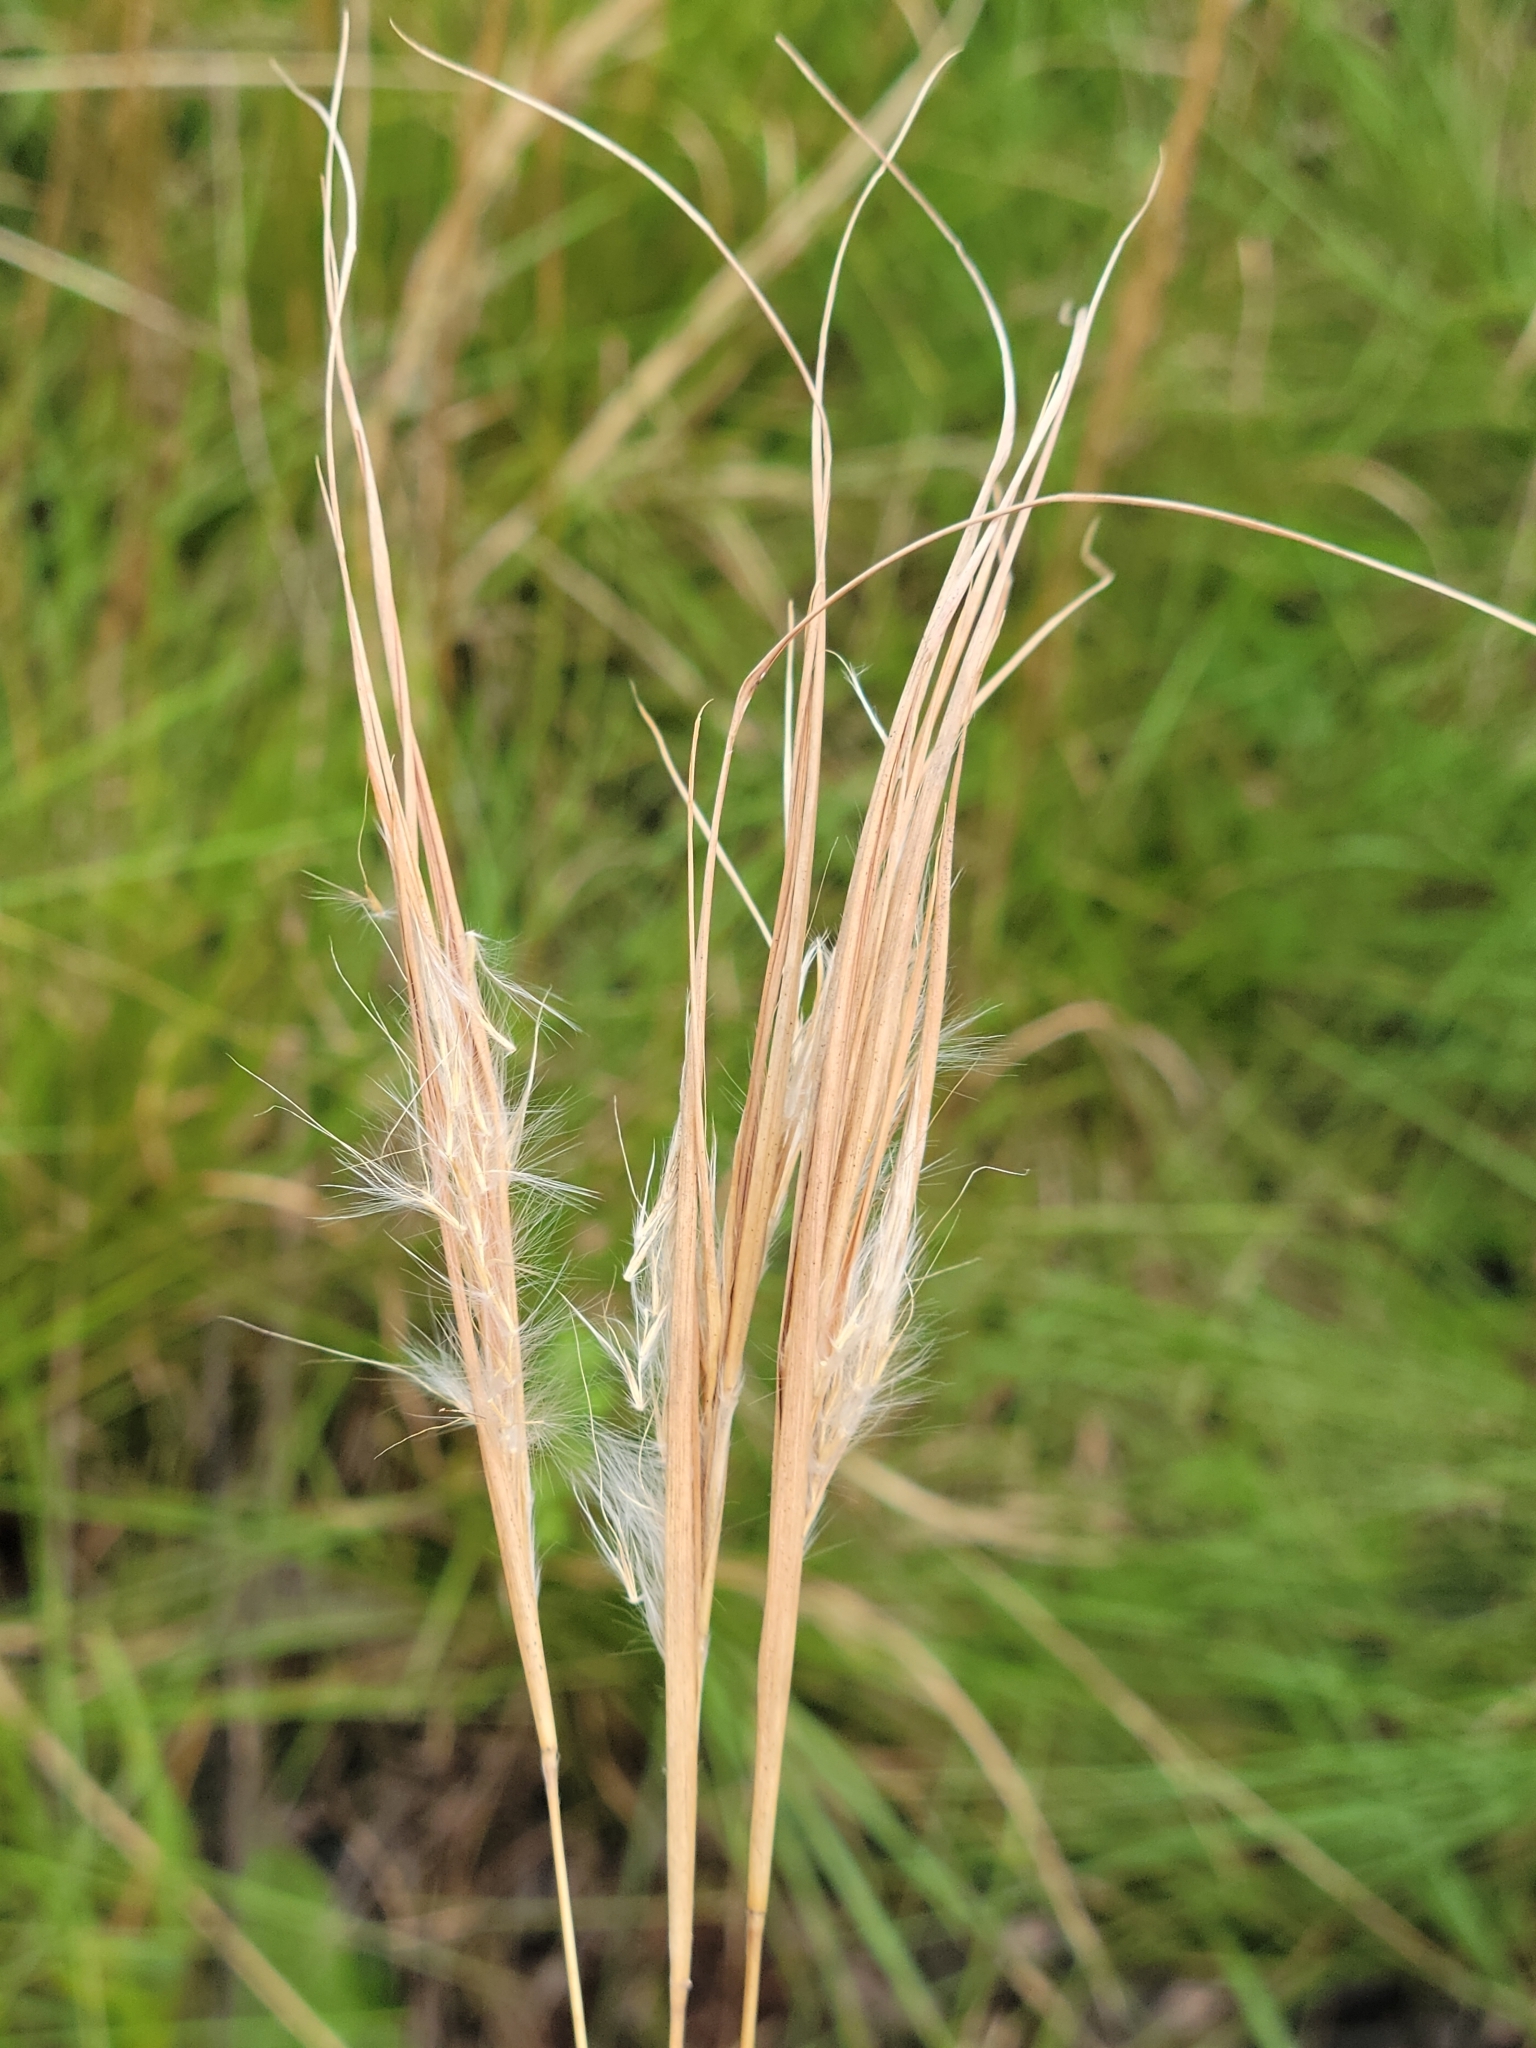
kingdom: Plantae
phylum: Tracheophyta
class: Liliopsida
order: Poales
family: Poaceae
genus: Andropogon
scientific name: Andropogon gyrans
